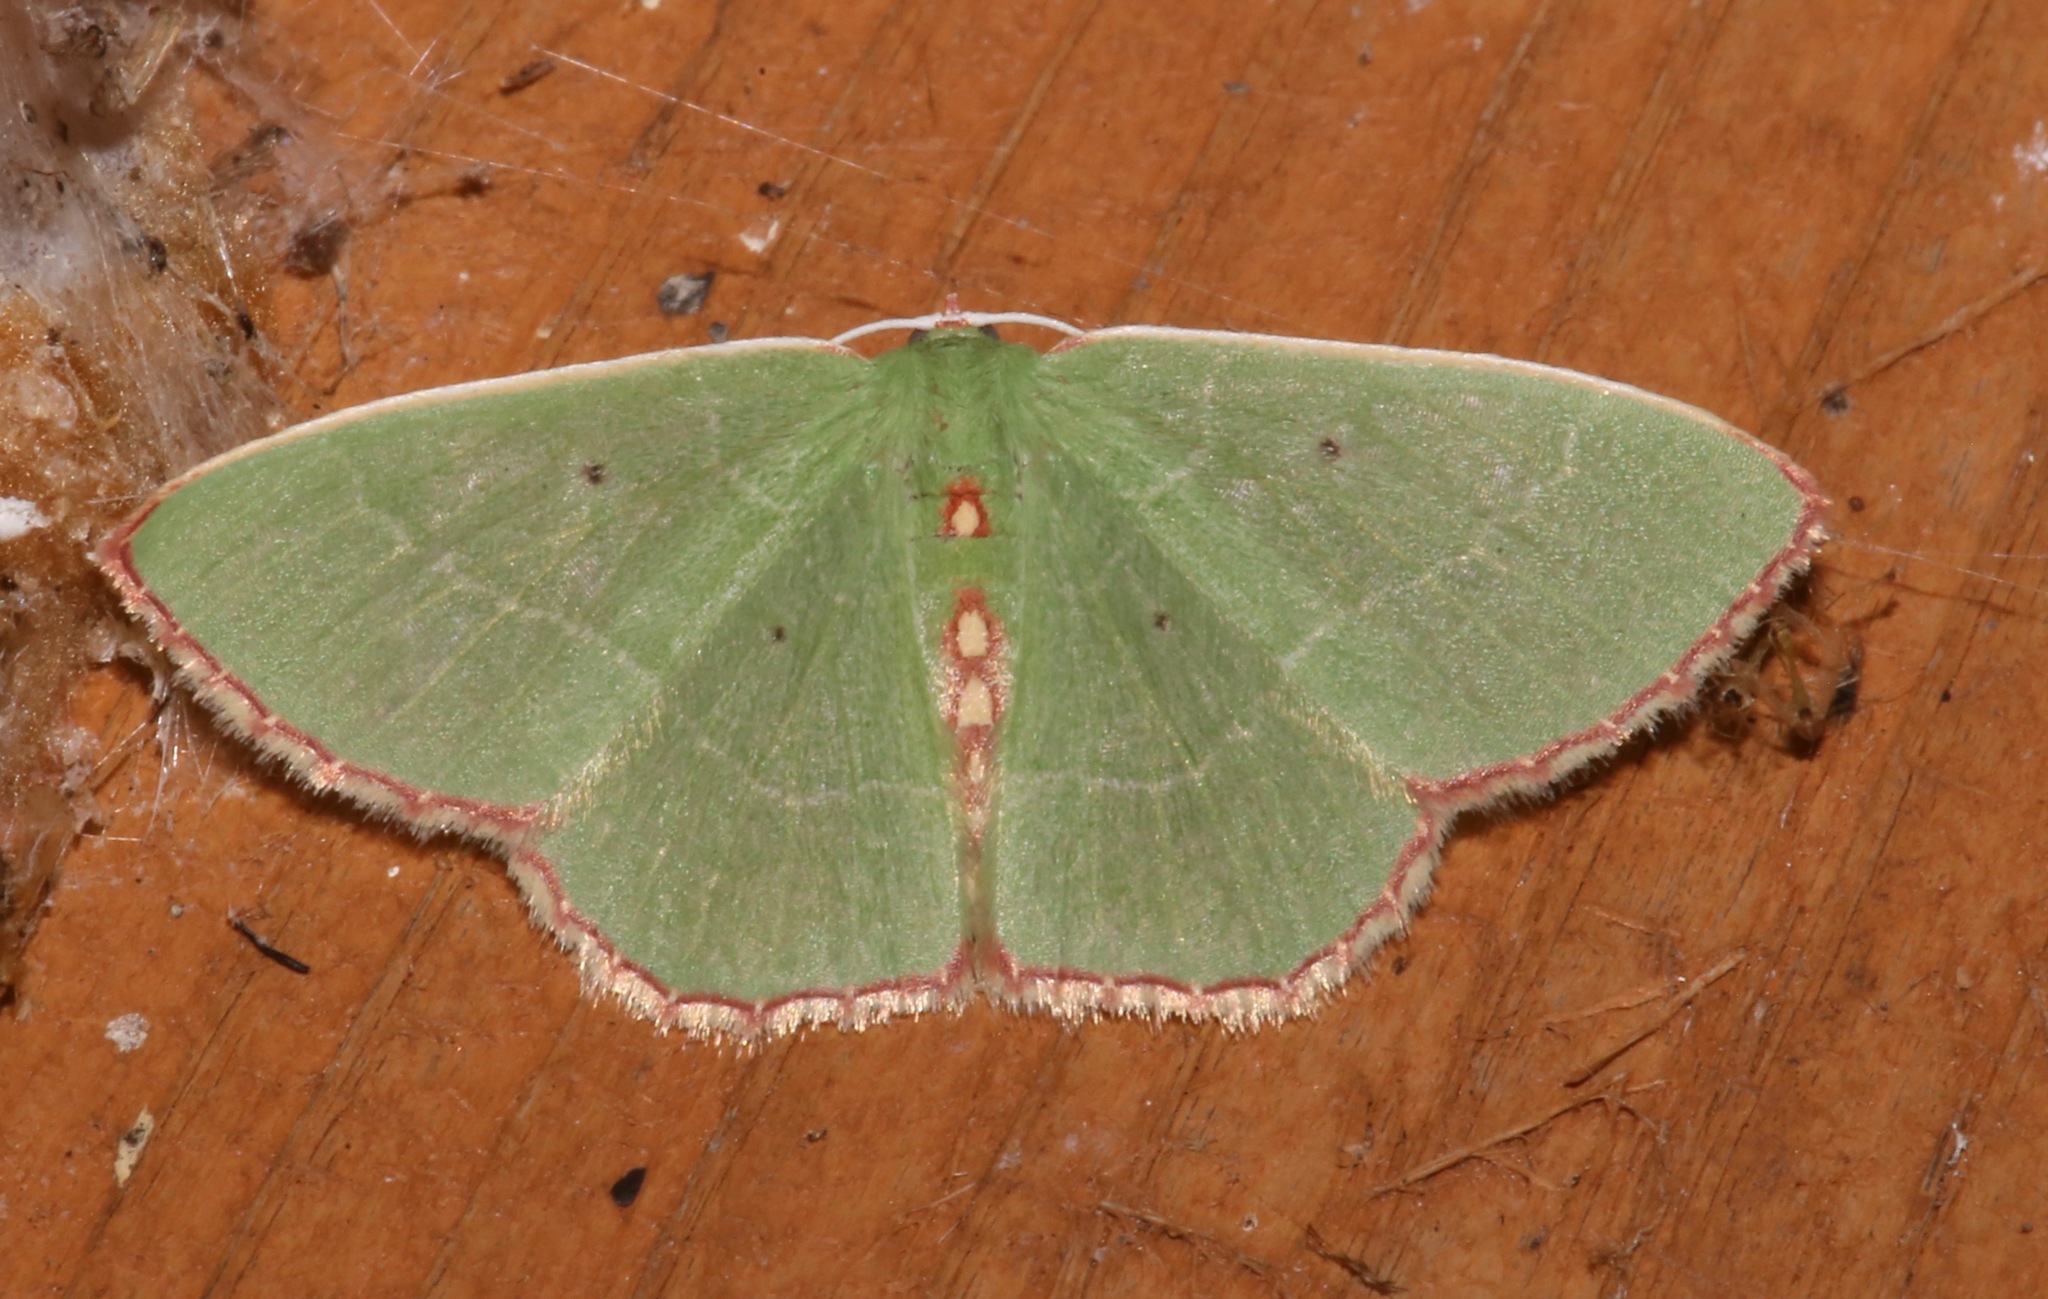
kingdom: Animalia
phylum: Arthropoda
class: Insecta
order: Lepidoptera
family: Geometridae
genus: Nemoria
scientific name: Nemoria lixaria
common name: Red-bordered emerald
